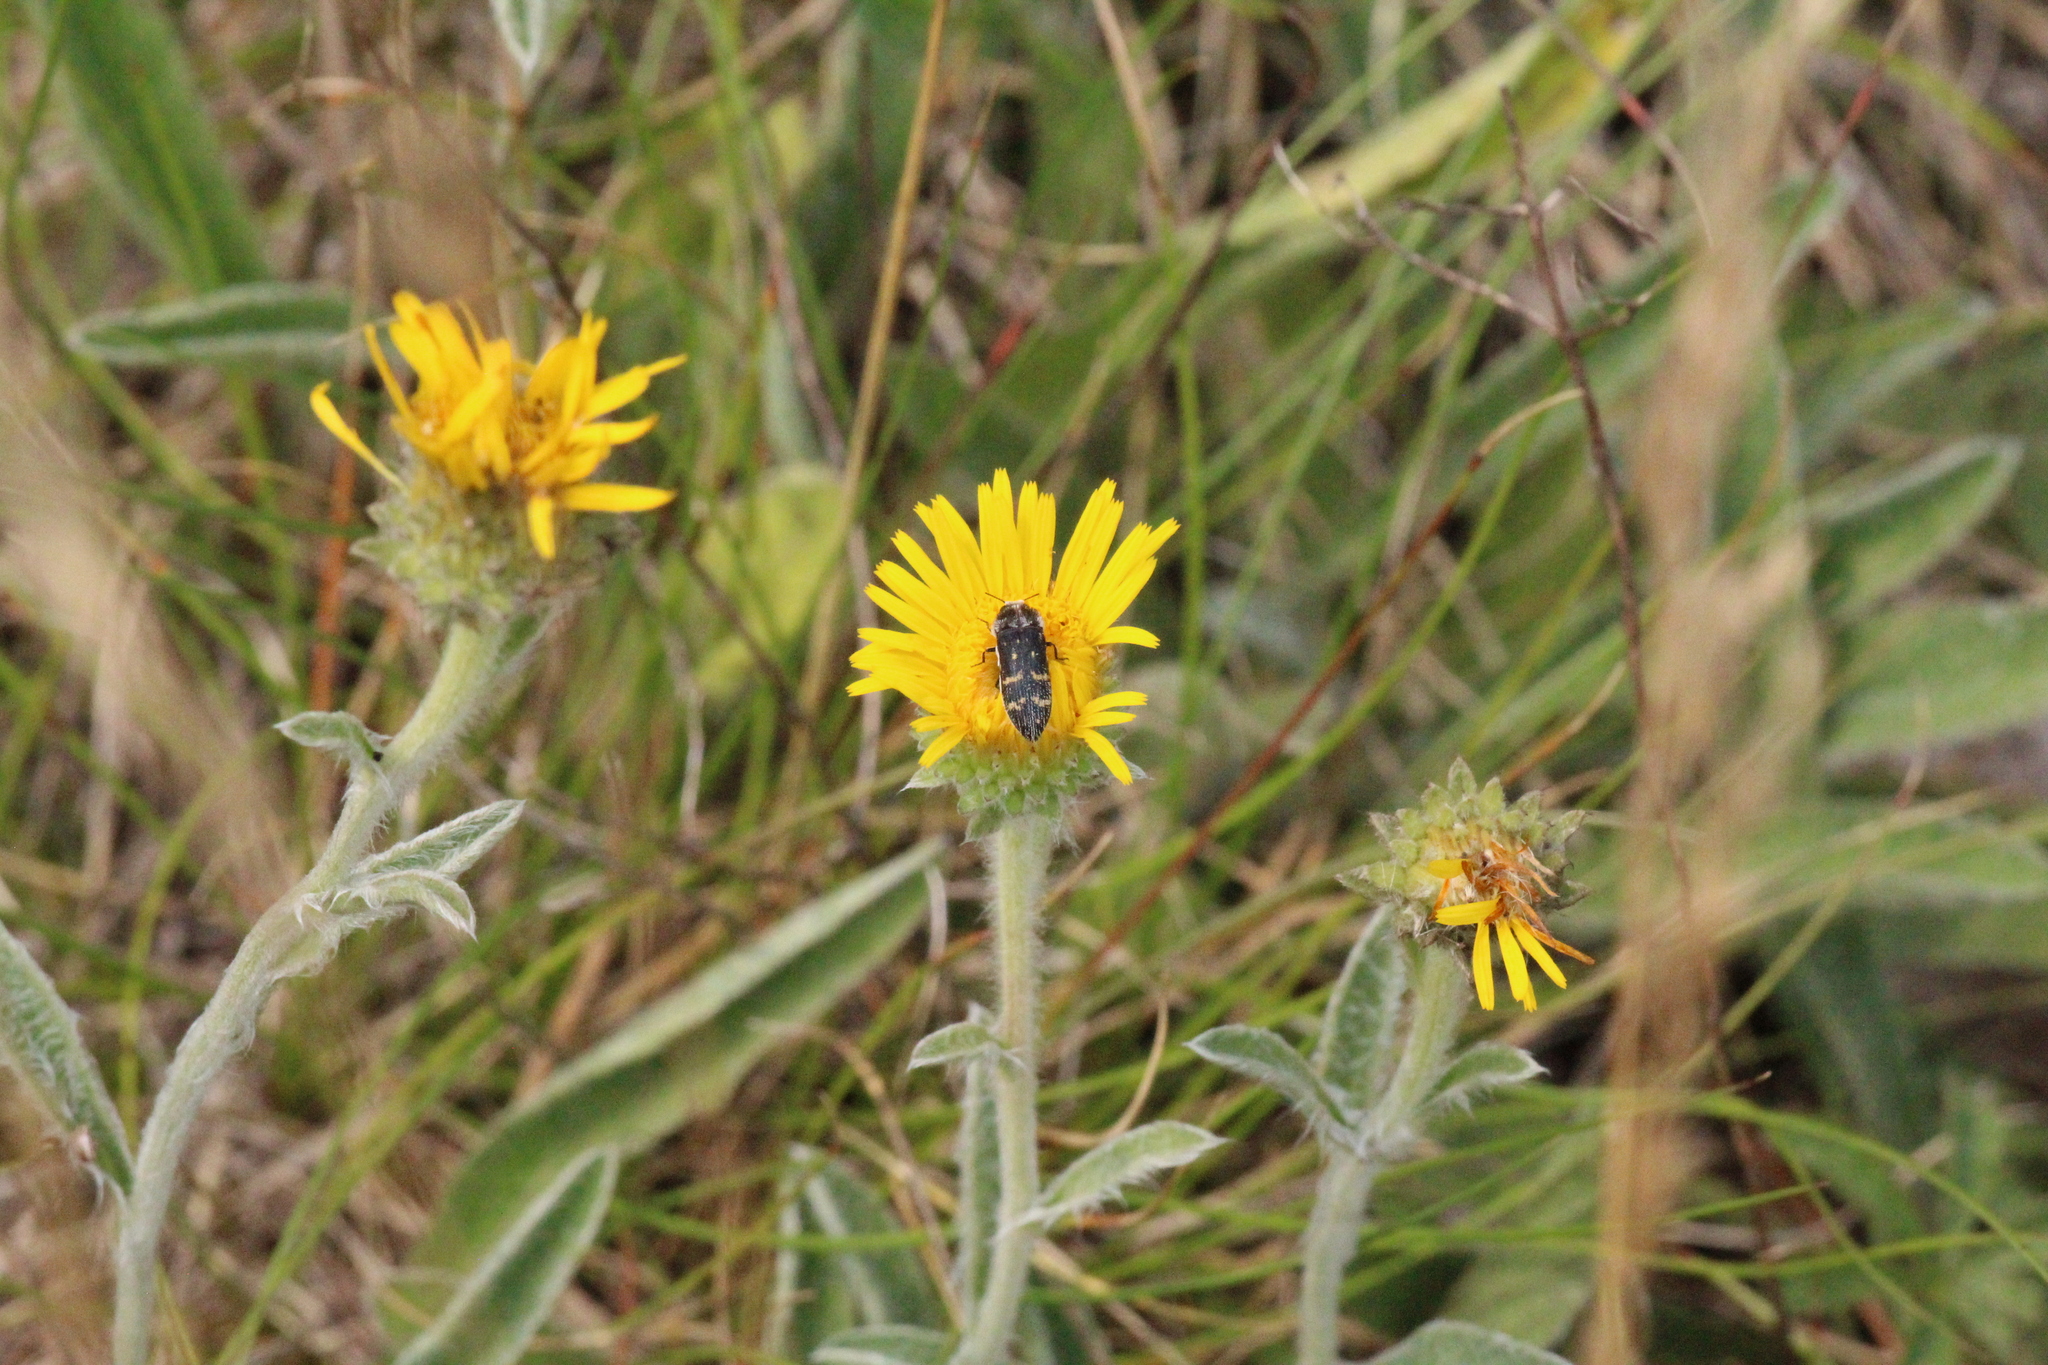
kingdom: Animalia
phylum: Arthropoda
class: Insecta
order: Coleoptera
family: Buprestidae
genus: Acmaeoderella
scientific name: Acmaeoderella flavofasciata
